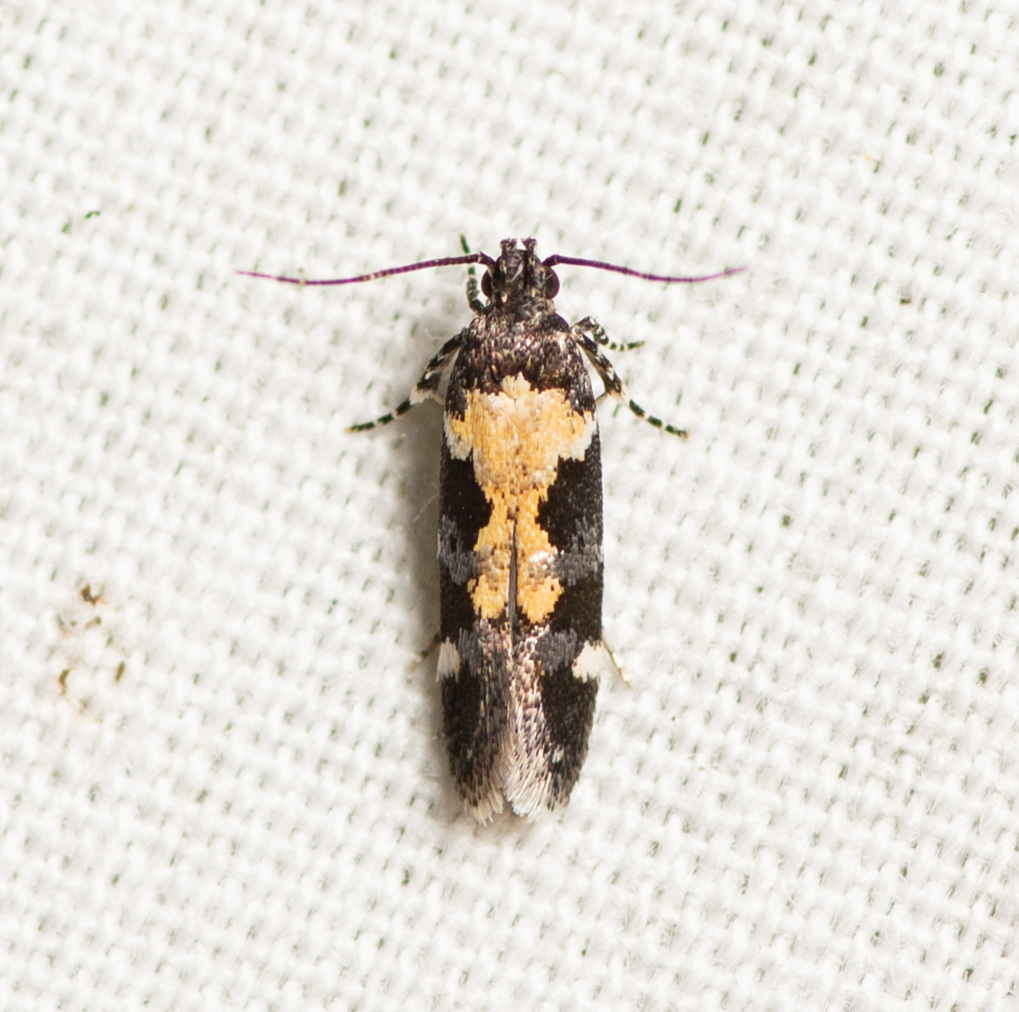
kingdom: Animalia
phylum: Arthropoda
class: Insecta
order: Lepidoptera
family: Gelechiidae
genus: Stegasta
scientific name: Stegasta bosqueella
